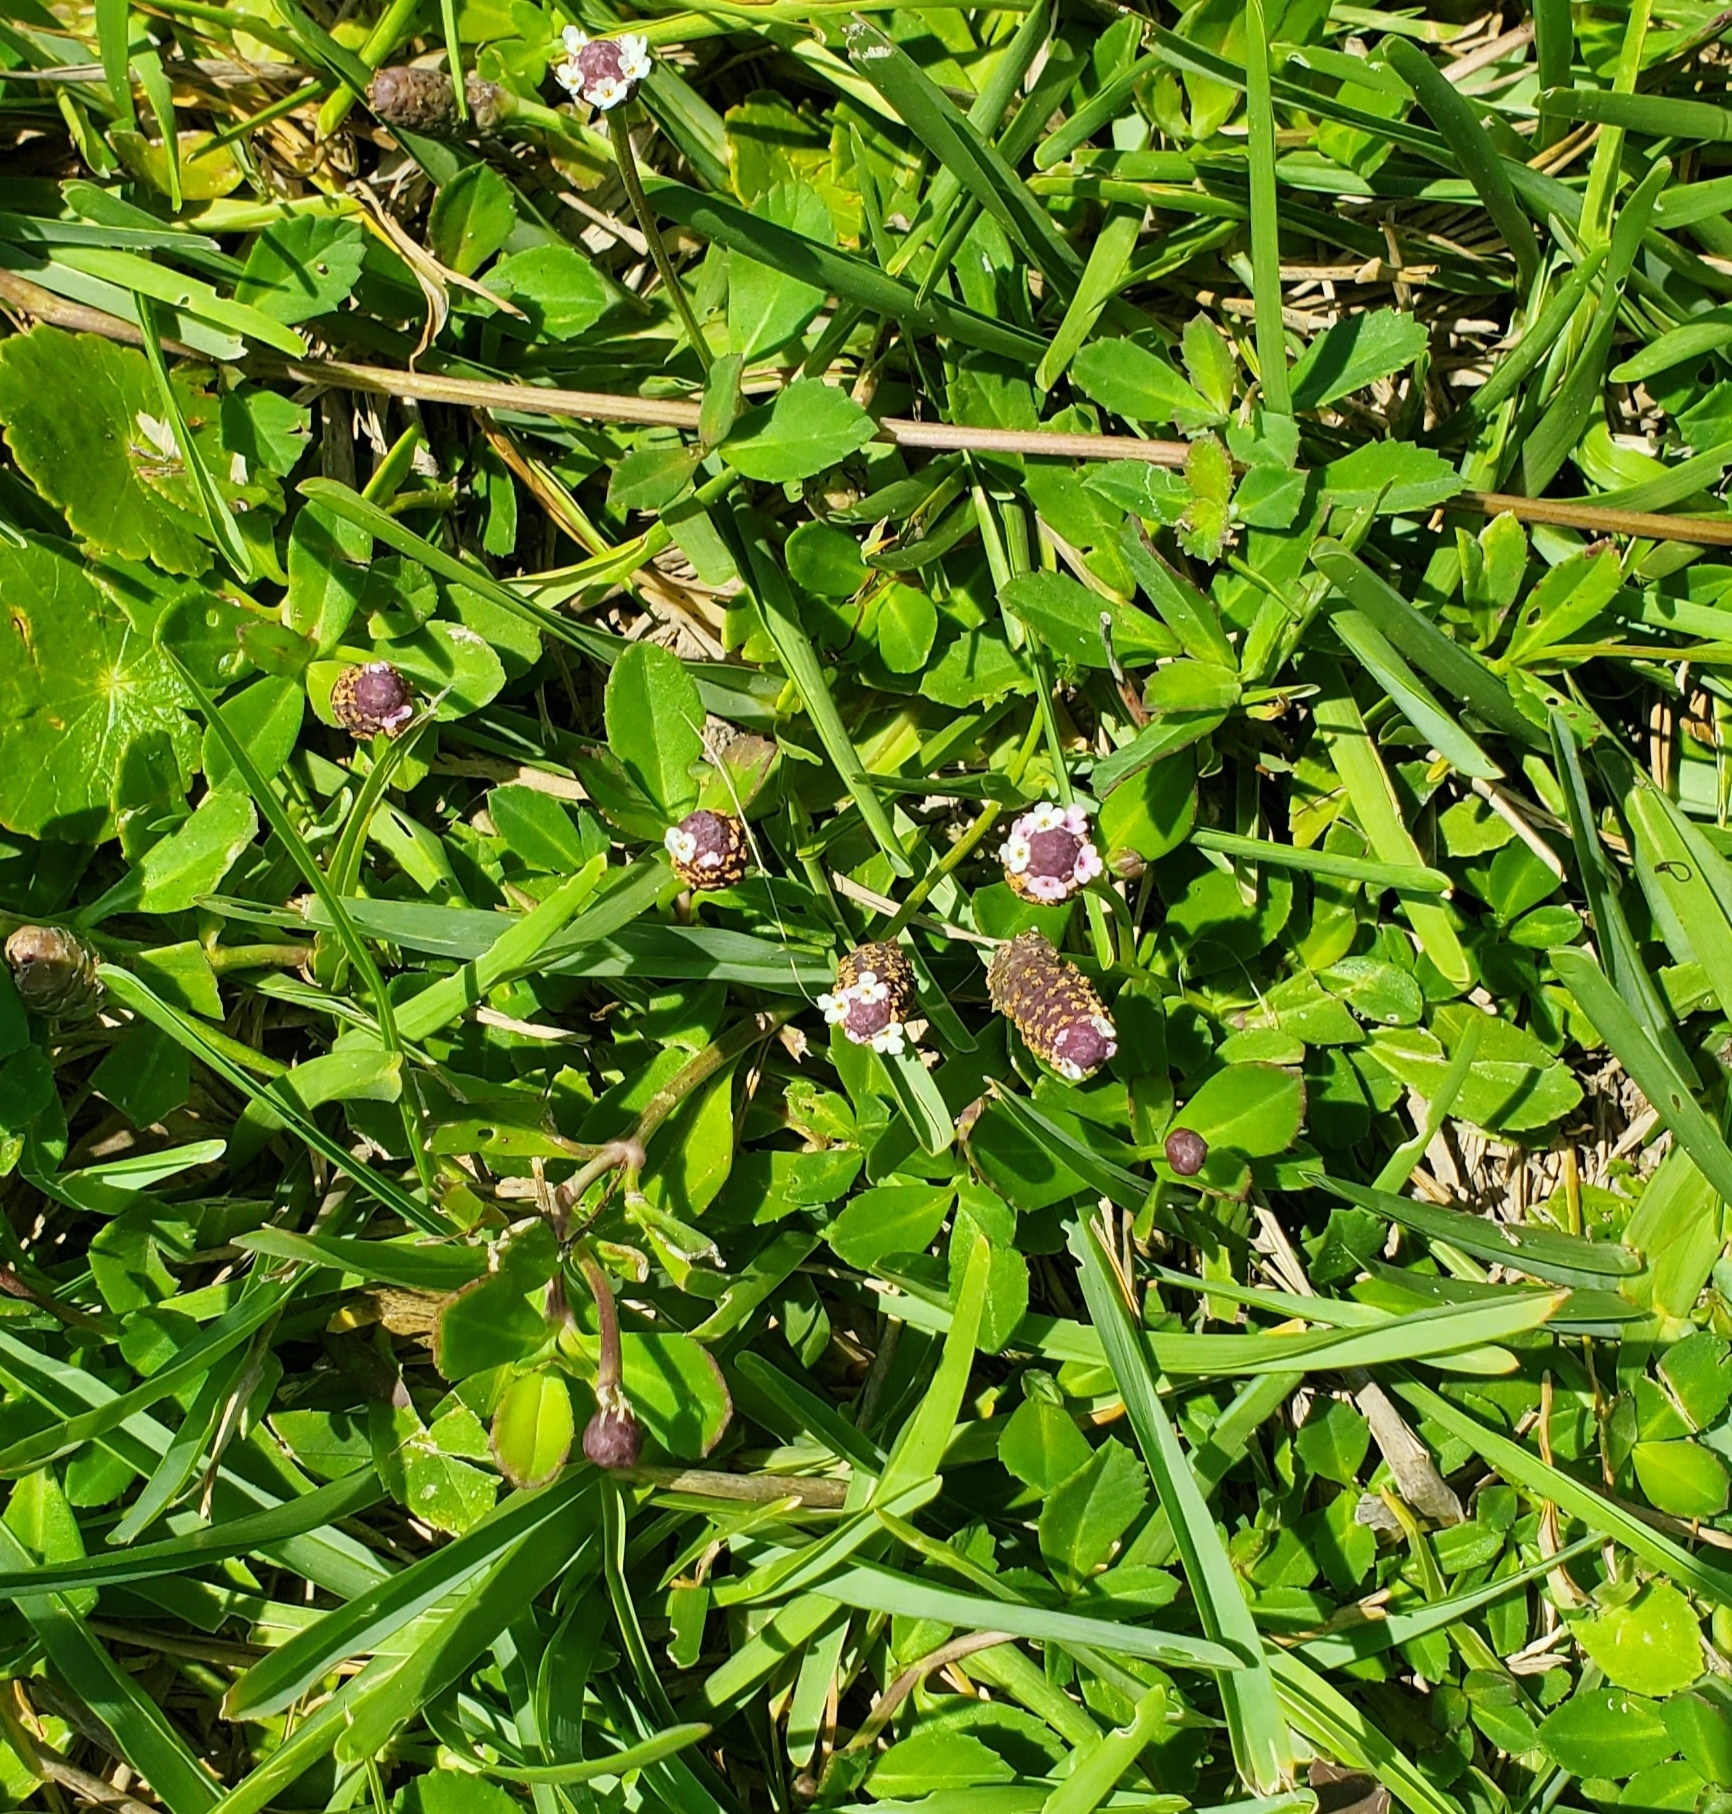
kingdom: Plantae
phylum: Tracheophyta
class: Magnoliopsida
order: Lamiales
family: Verbenaceae
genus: Phyla
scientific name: Phyla nodiflora
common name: Frogfruit
